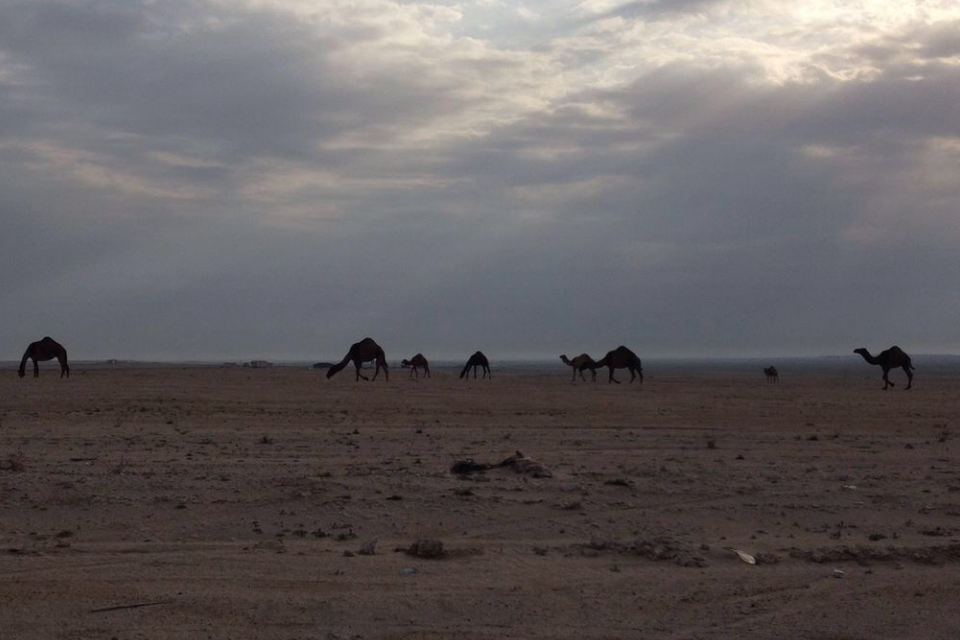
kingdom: Animalia
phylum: Chordata
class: Mammalia
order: Artiodactyla
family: Camelidae
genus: Camelus
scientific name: Camelus dromedarius
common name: One-humped camel
